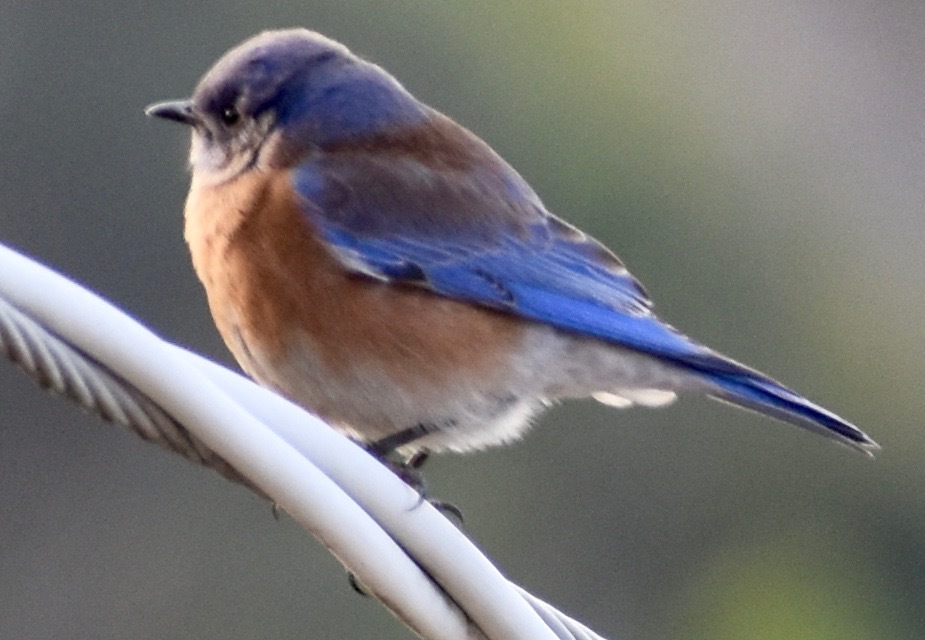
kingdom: Animalia
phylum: Chordata
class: Aves
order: Passeriformes
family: Turdidae
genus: Sialia
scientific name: Sialia mexicana
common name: Western bluebird
